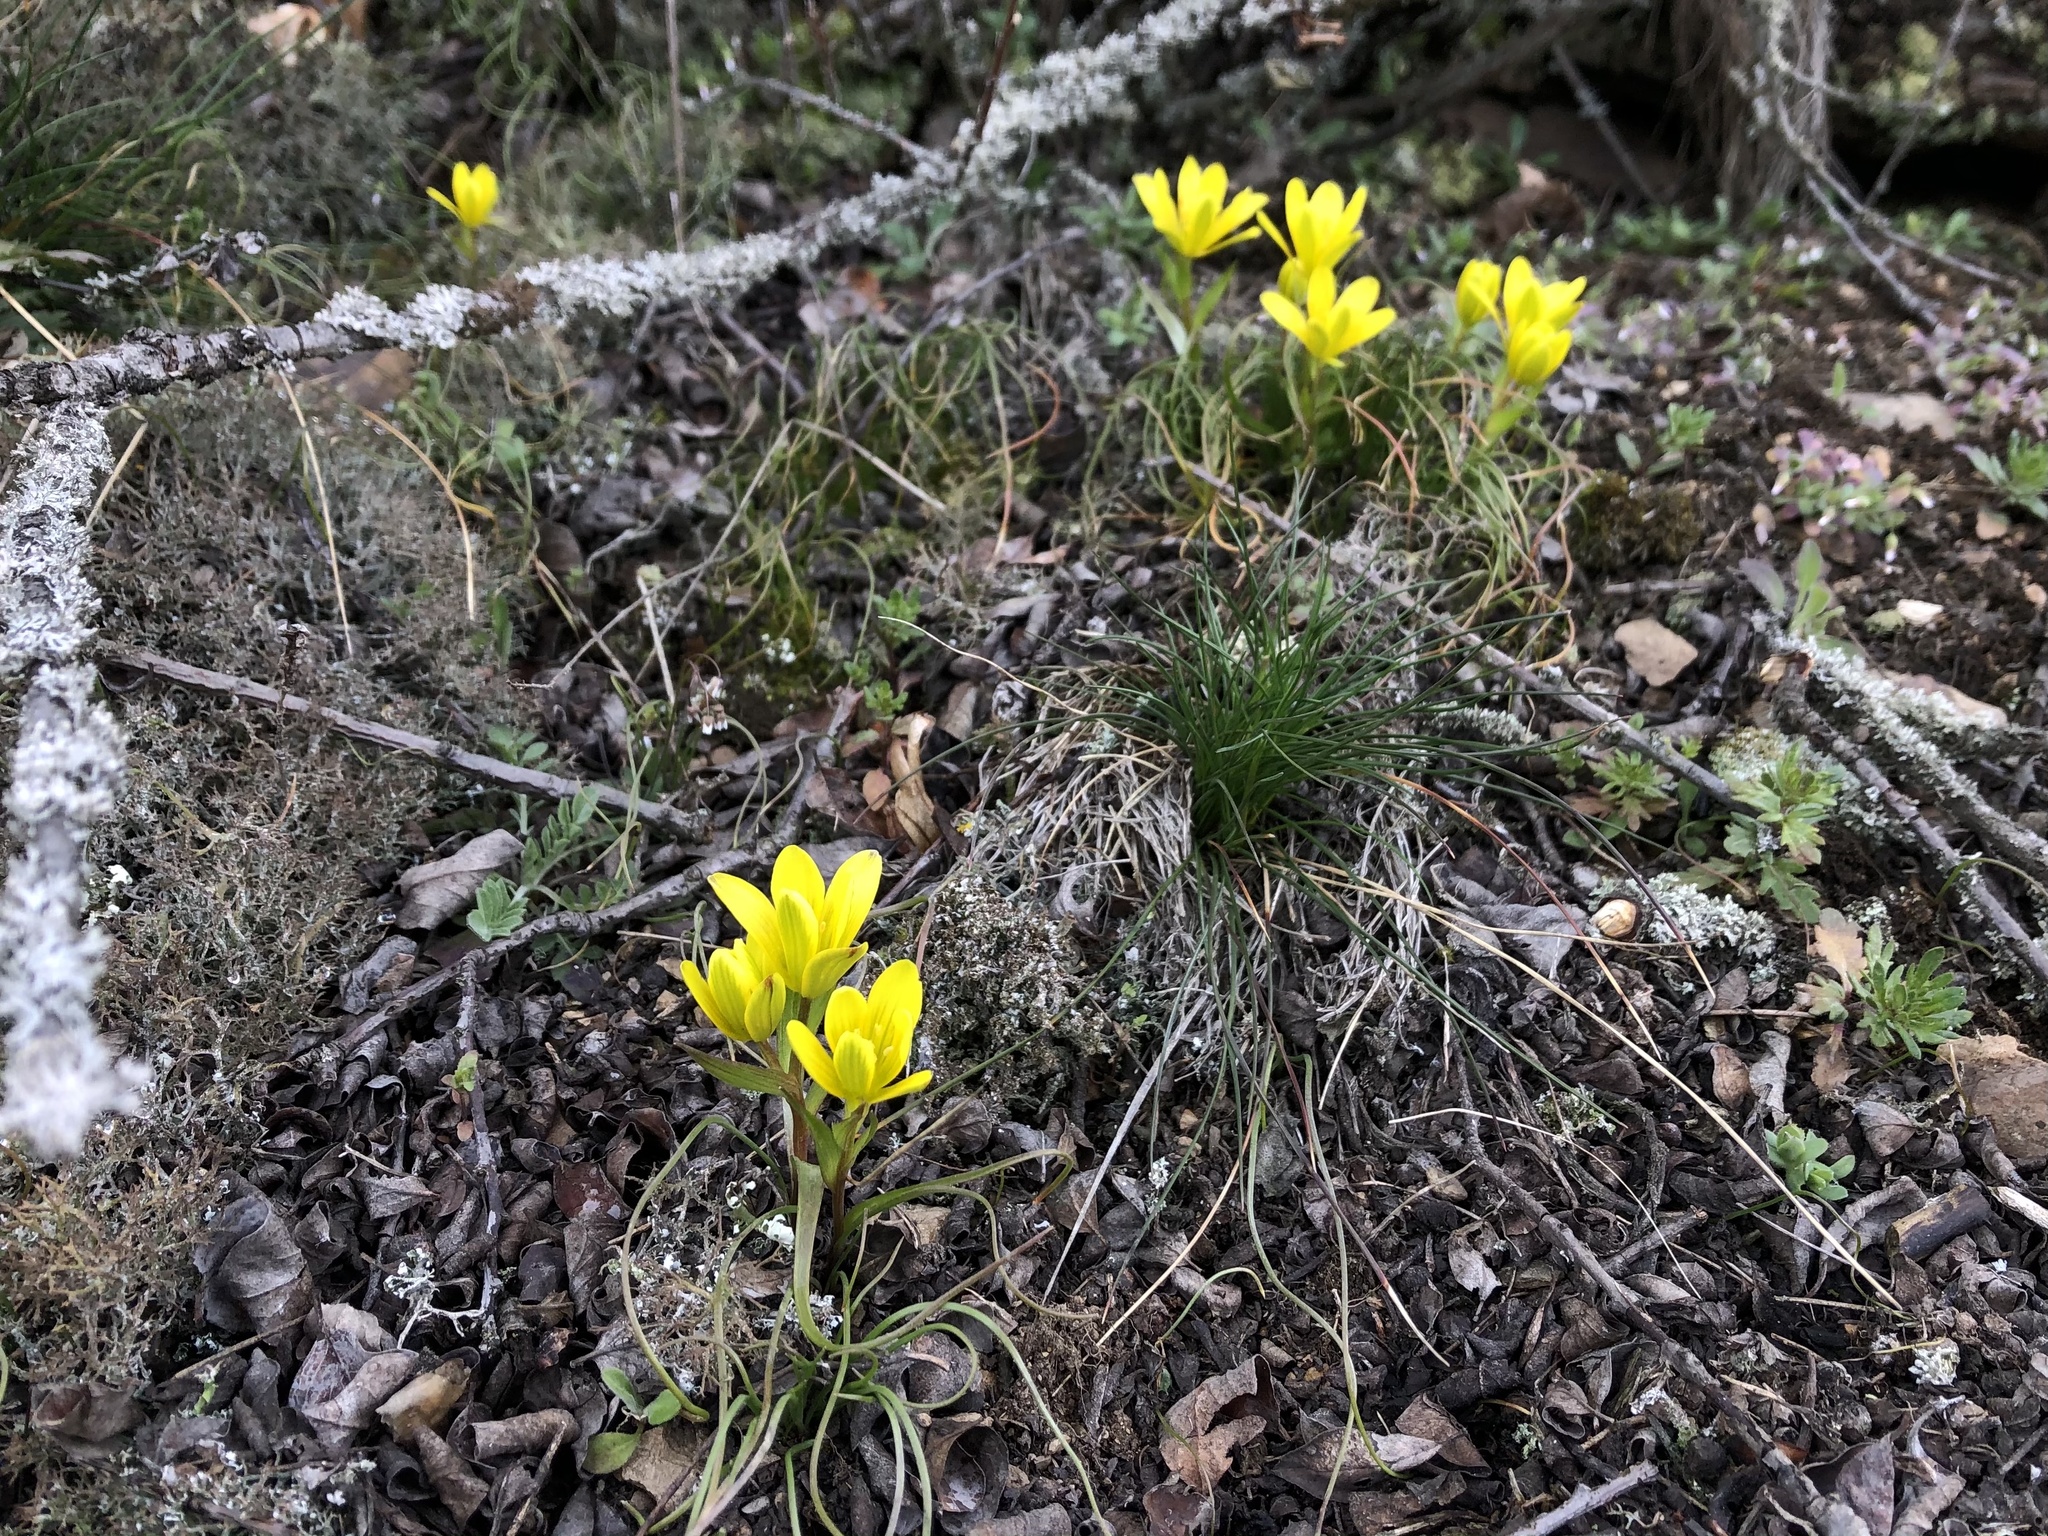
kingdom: Plantae
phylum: Tracheophyta
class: Liliopsida
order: Liliales
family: Liliaceae
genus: Gagea
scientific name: Gagea bohemica
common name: Early star-of-bethlehem
